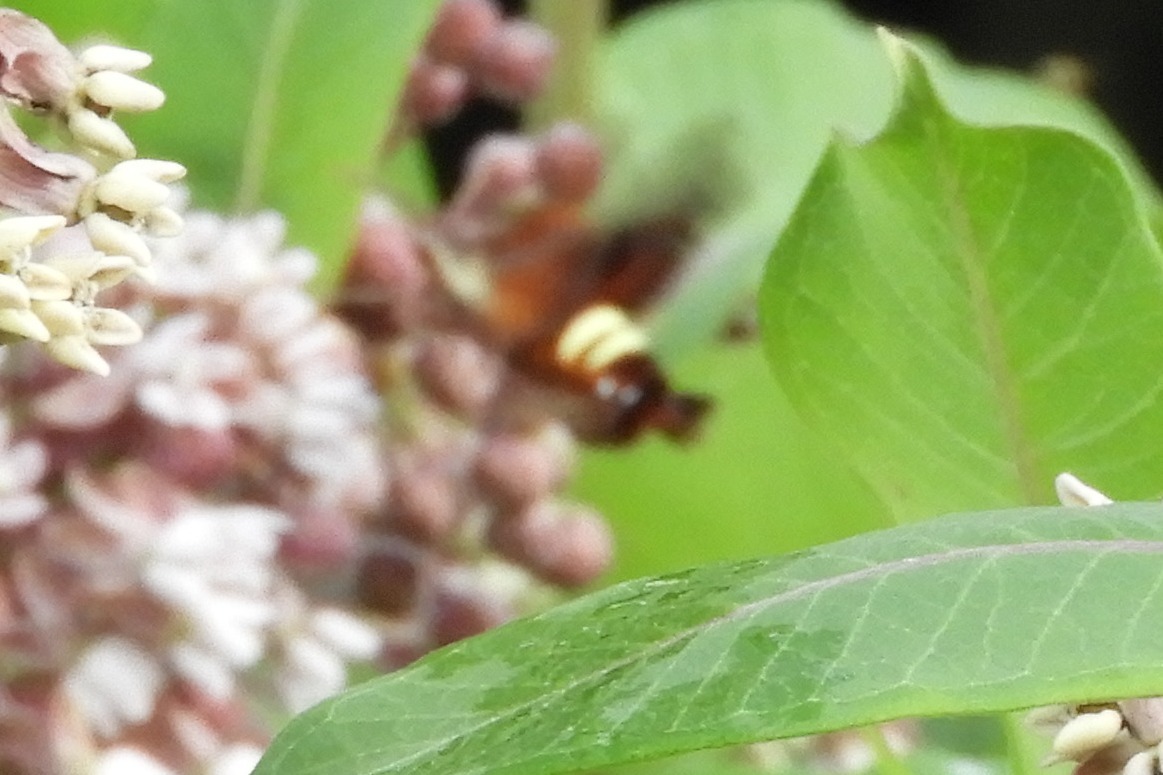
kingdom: Animalia
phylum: Arthropoda
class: Insecta
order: Lepidoptera
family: Sphingidae
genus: Amphion
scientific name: Amphion floridensis
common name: Nessus sphinx
